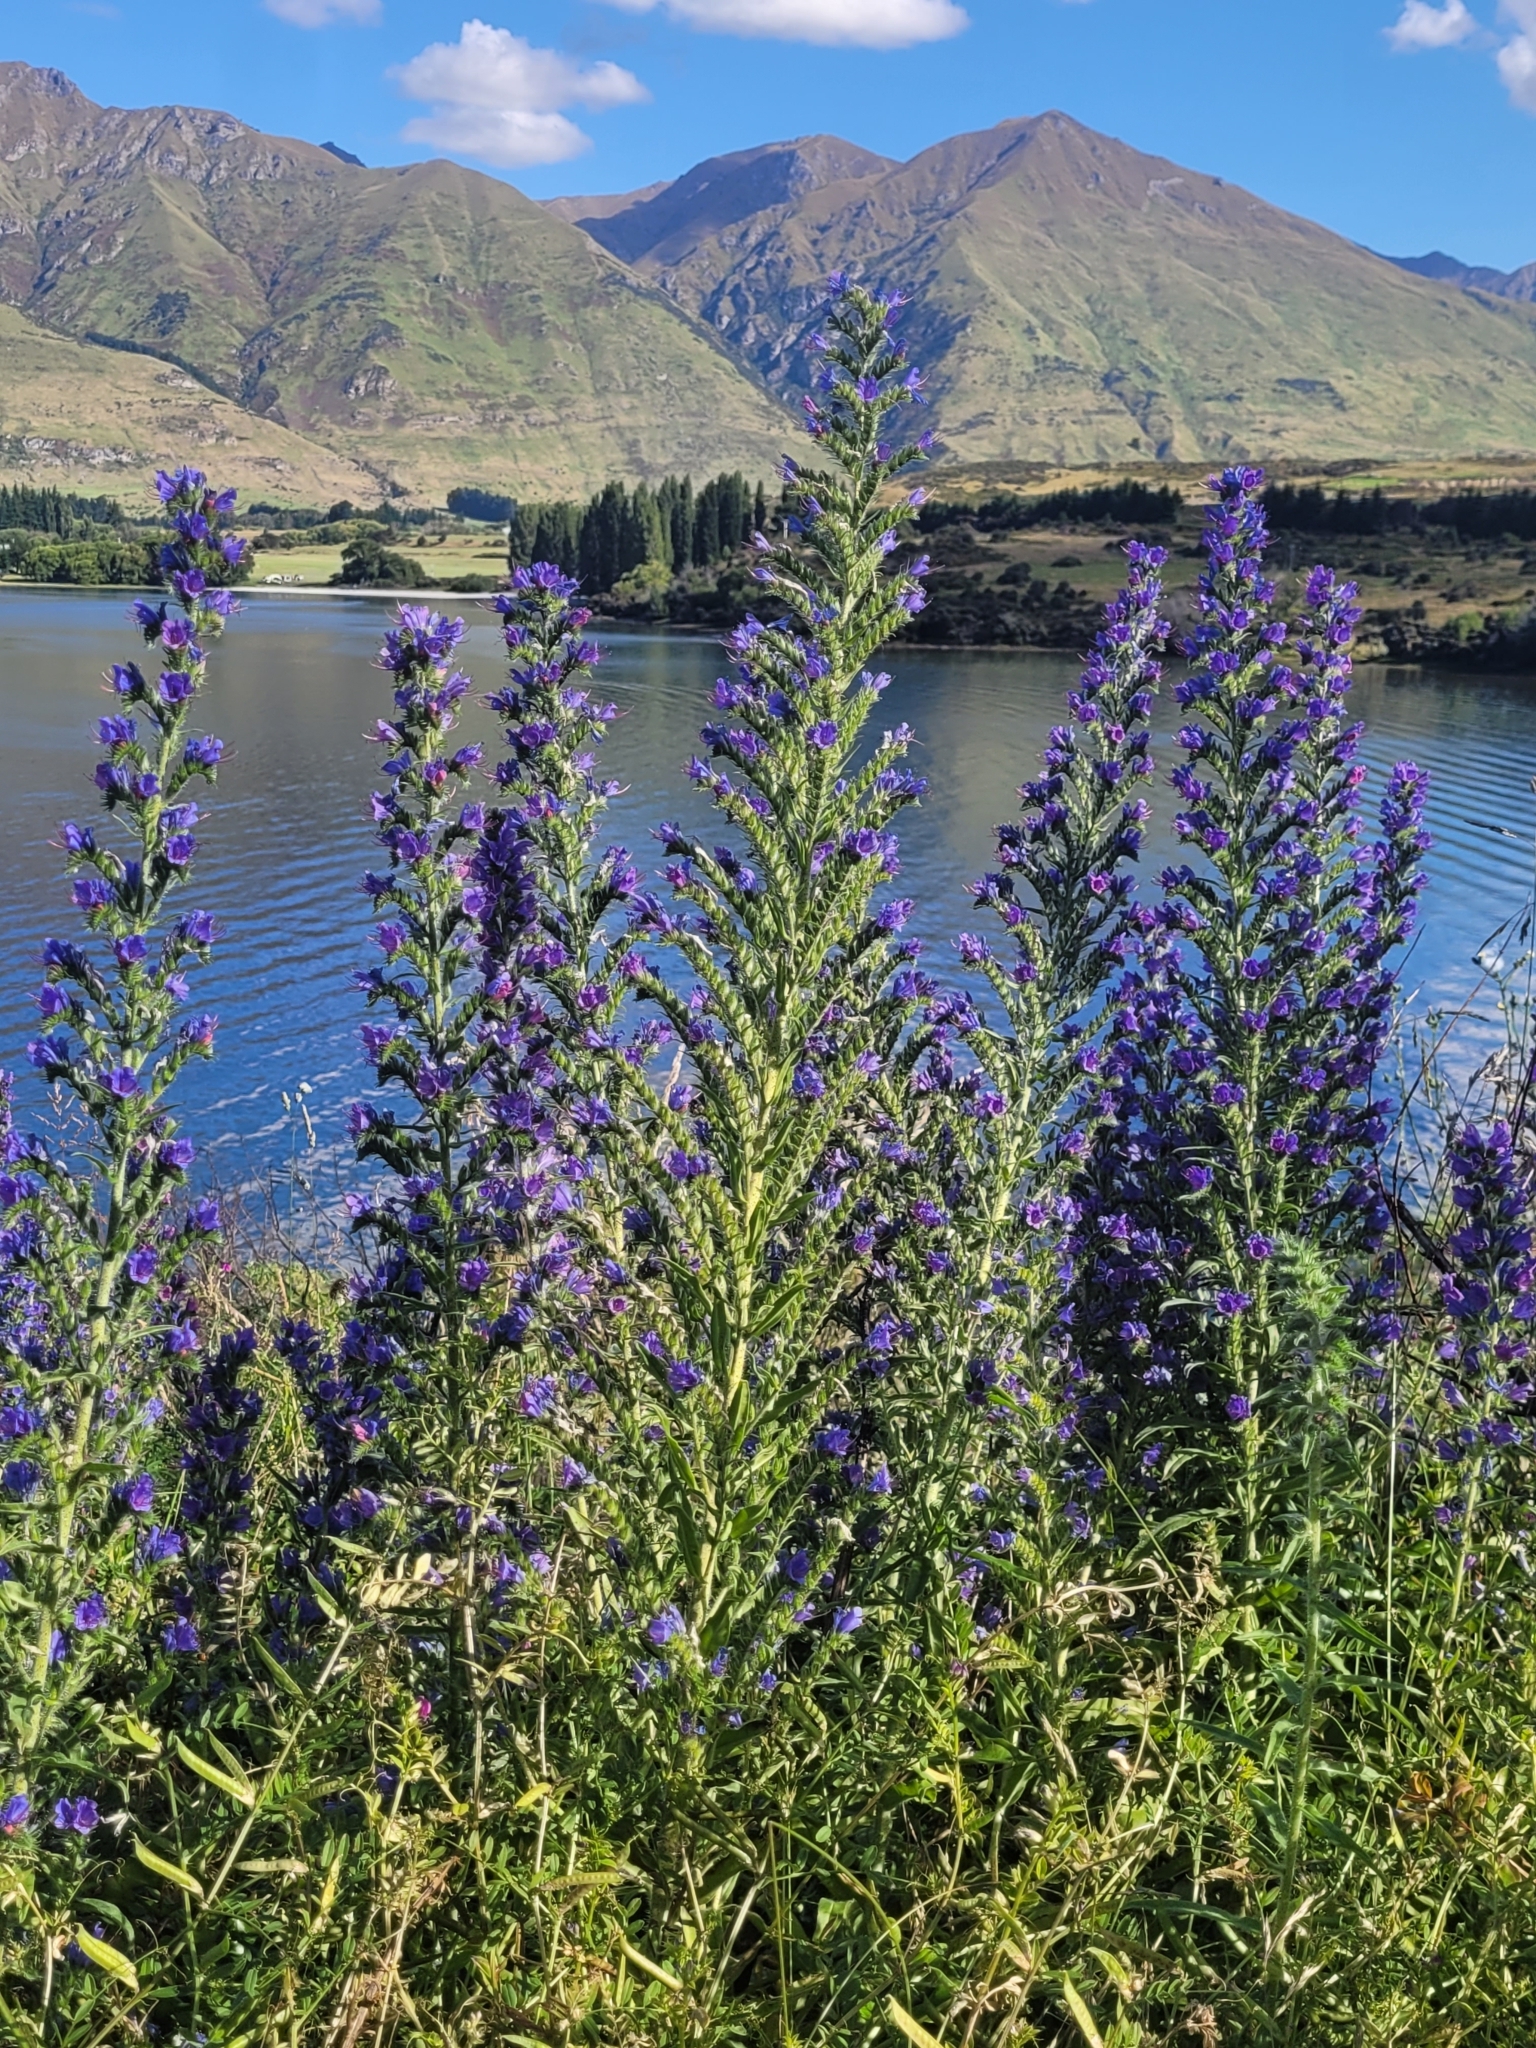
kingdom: Plantae
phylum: Tracheophyta
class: Magnoliopsida
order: Boraginales
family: Boraginaceae
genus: Echium
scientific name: Echium vulgare
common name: Common viper's bugloss
